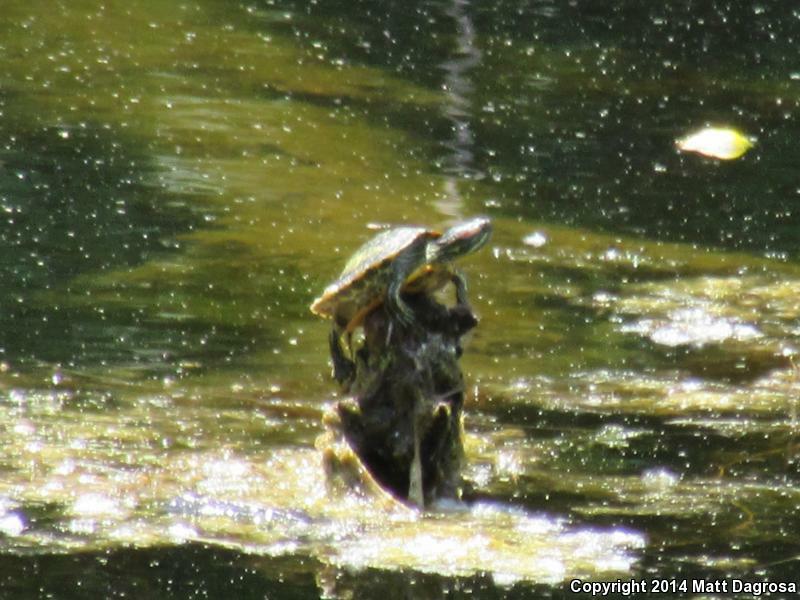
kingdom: Animalia
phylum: Chordata
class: Testudines
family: Emydidae
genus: Trachemys
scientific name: Trachemys scripta
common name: Slider
